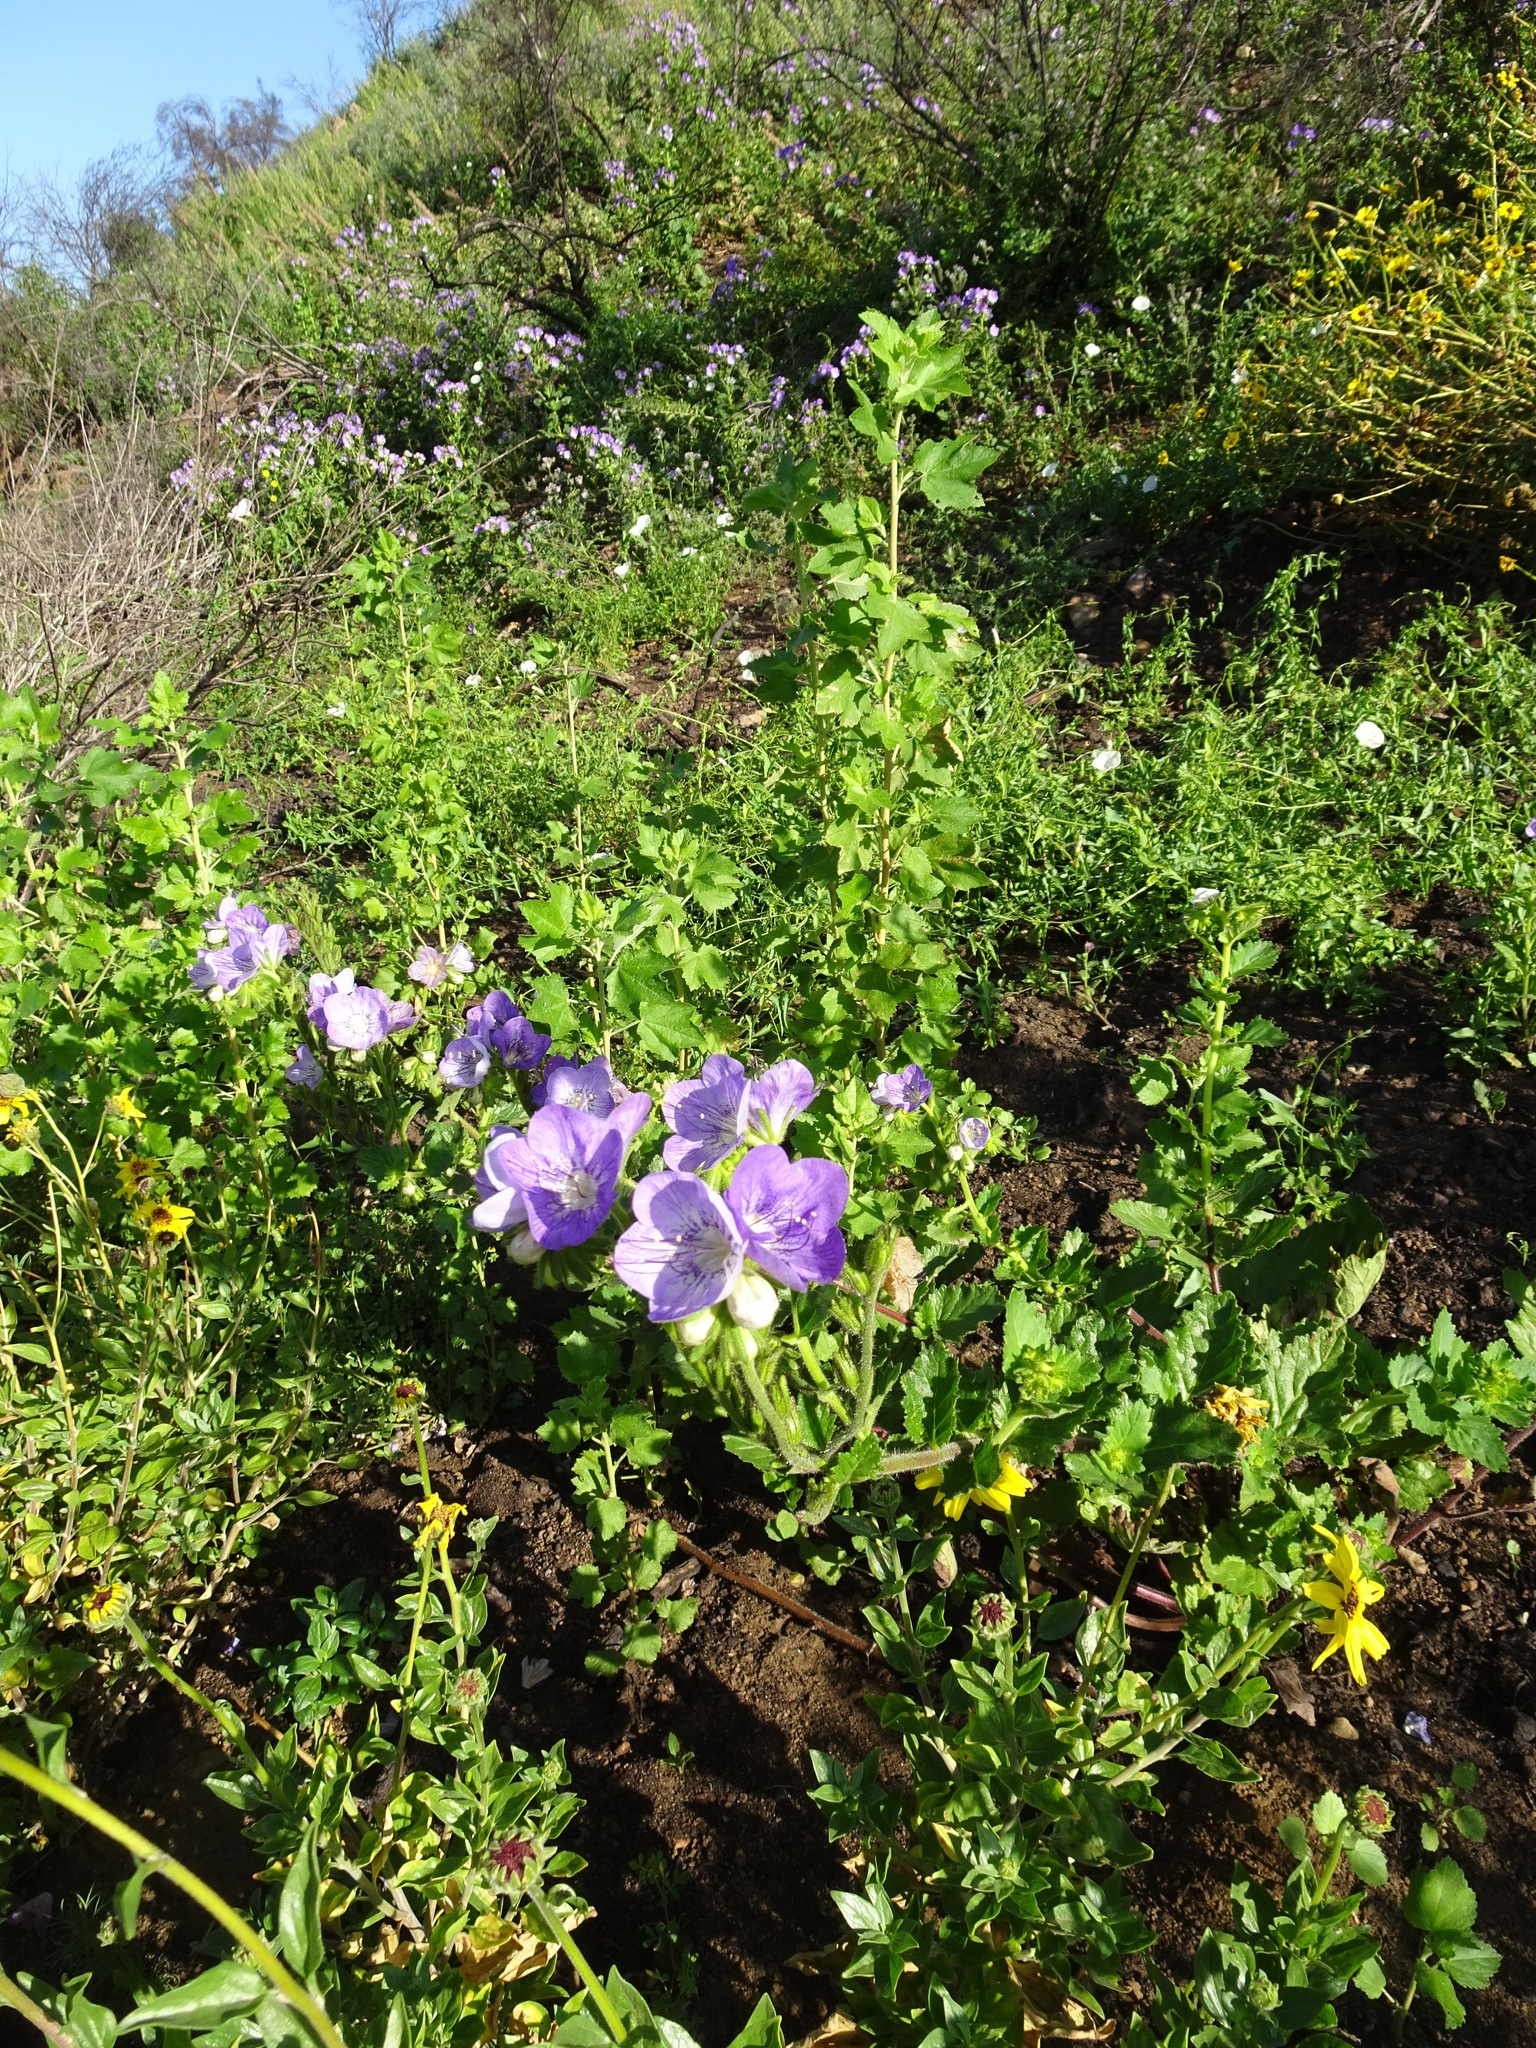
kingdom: Plantae
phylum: Tracheophyta
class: Magnoliopsida
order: Boraginales
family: Hydrophyllaceae
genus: Phacelia
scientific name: Phacelia grandiflora
